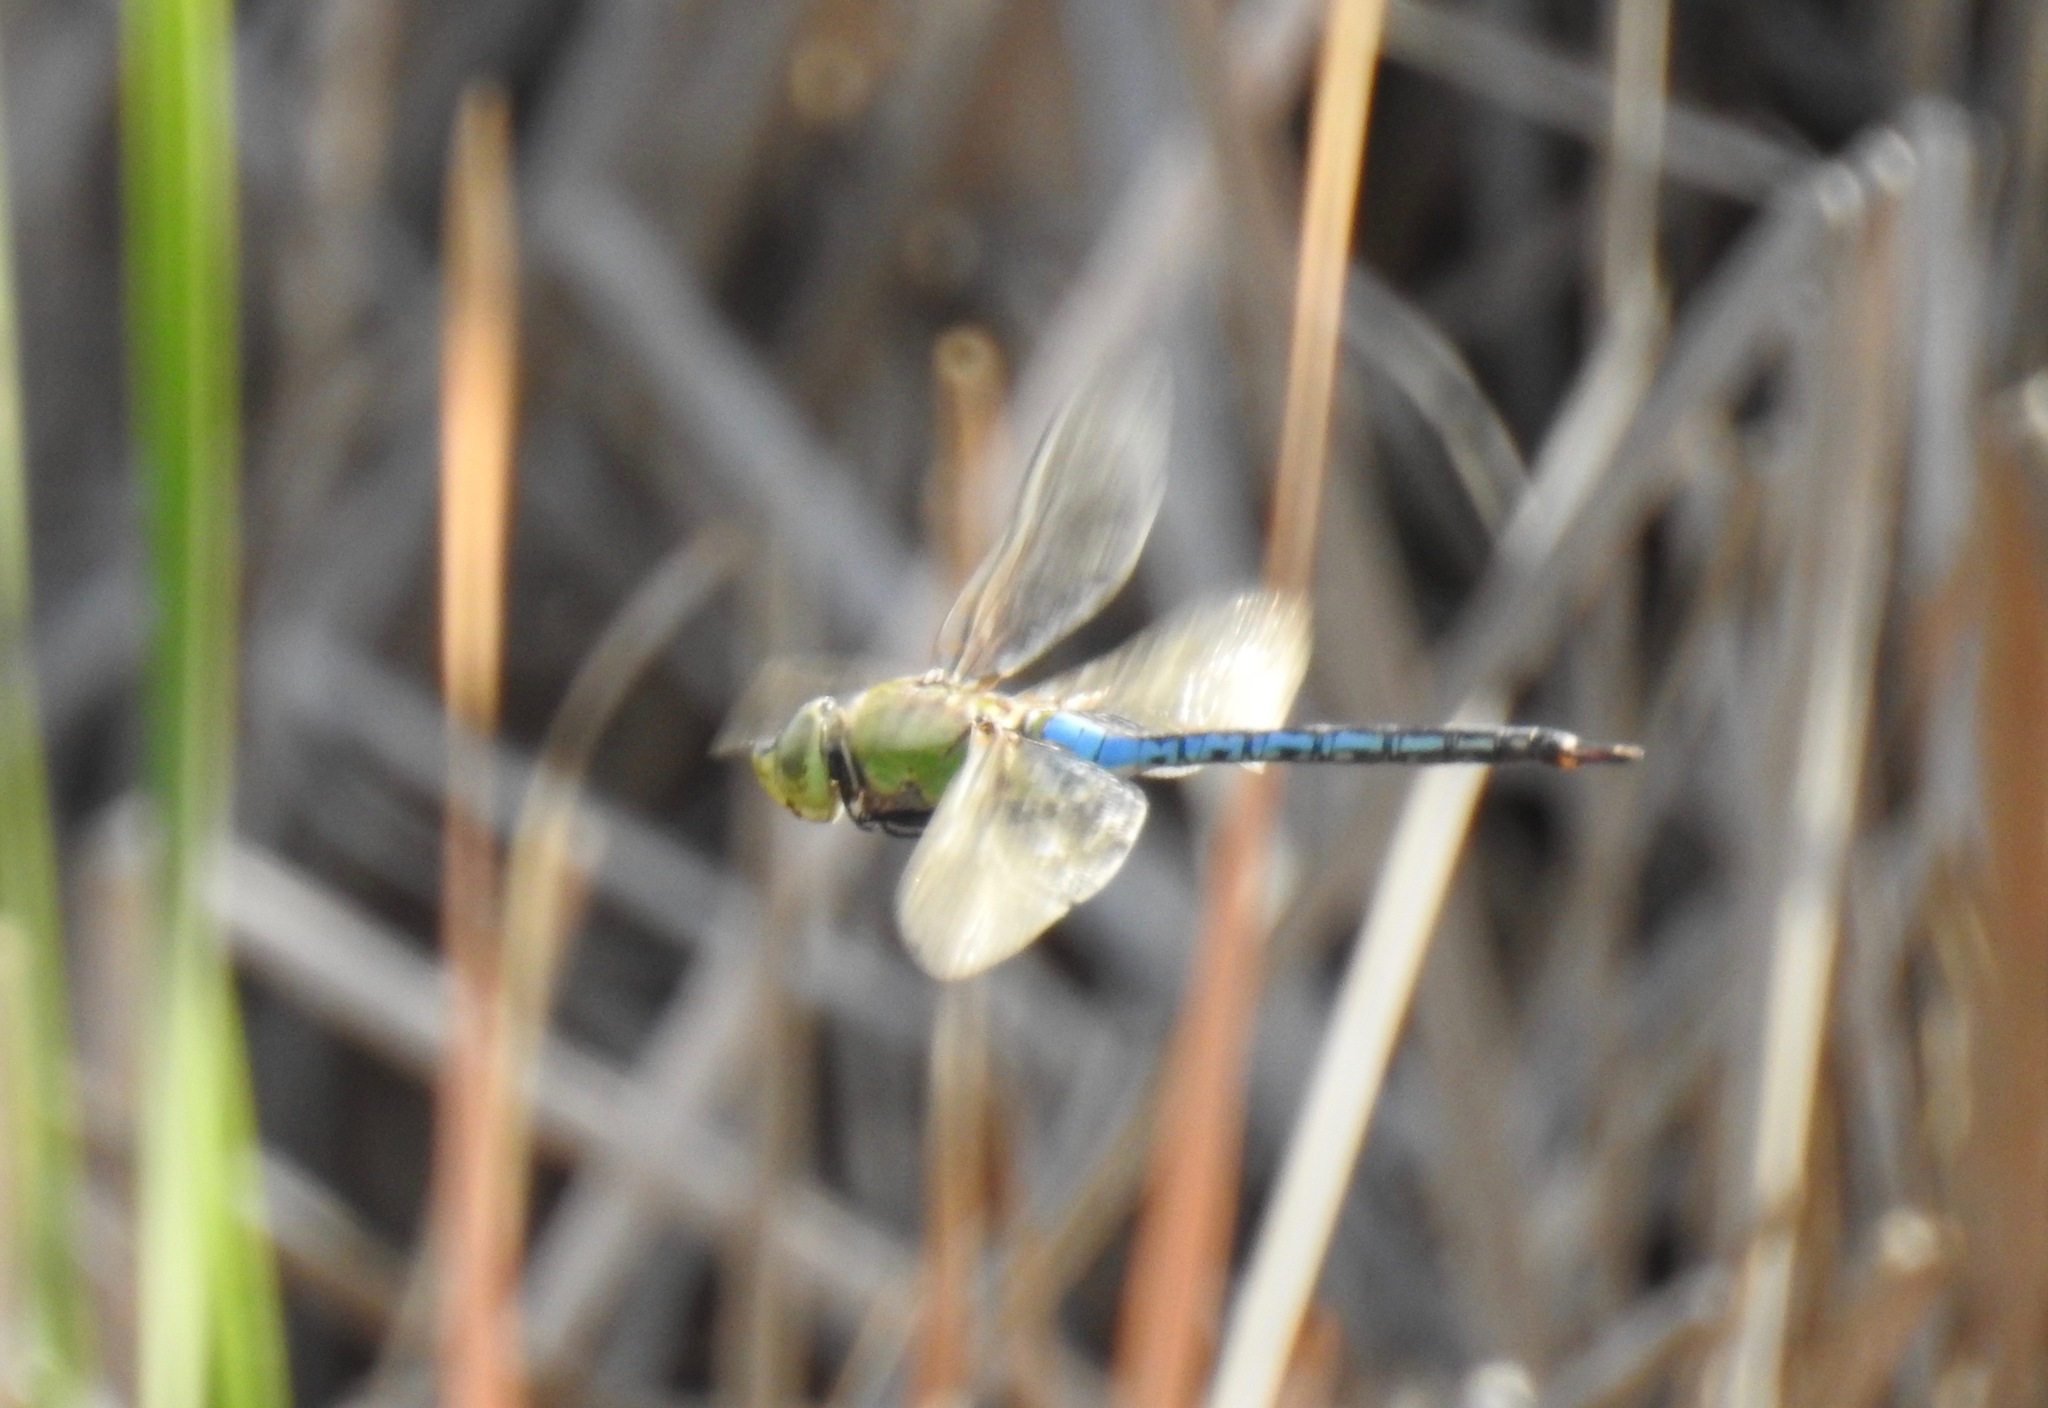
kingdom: Animalia
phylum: Arthropoda
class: Insecta
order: Odonata
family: Aeshnidae
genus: Anax
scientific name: Anax junius
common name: Common green darner
